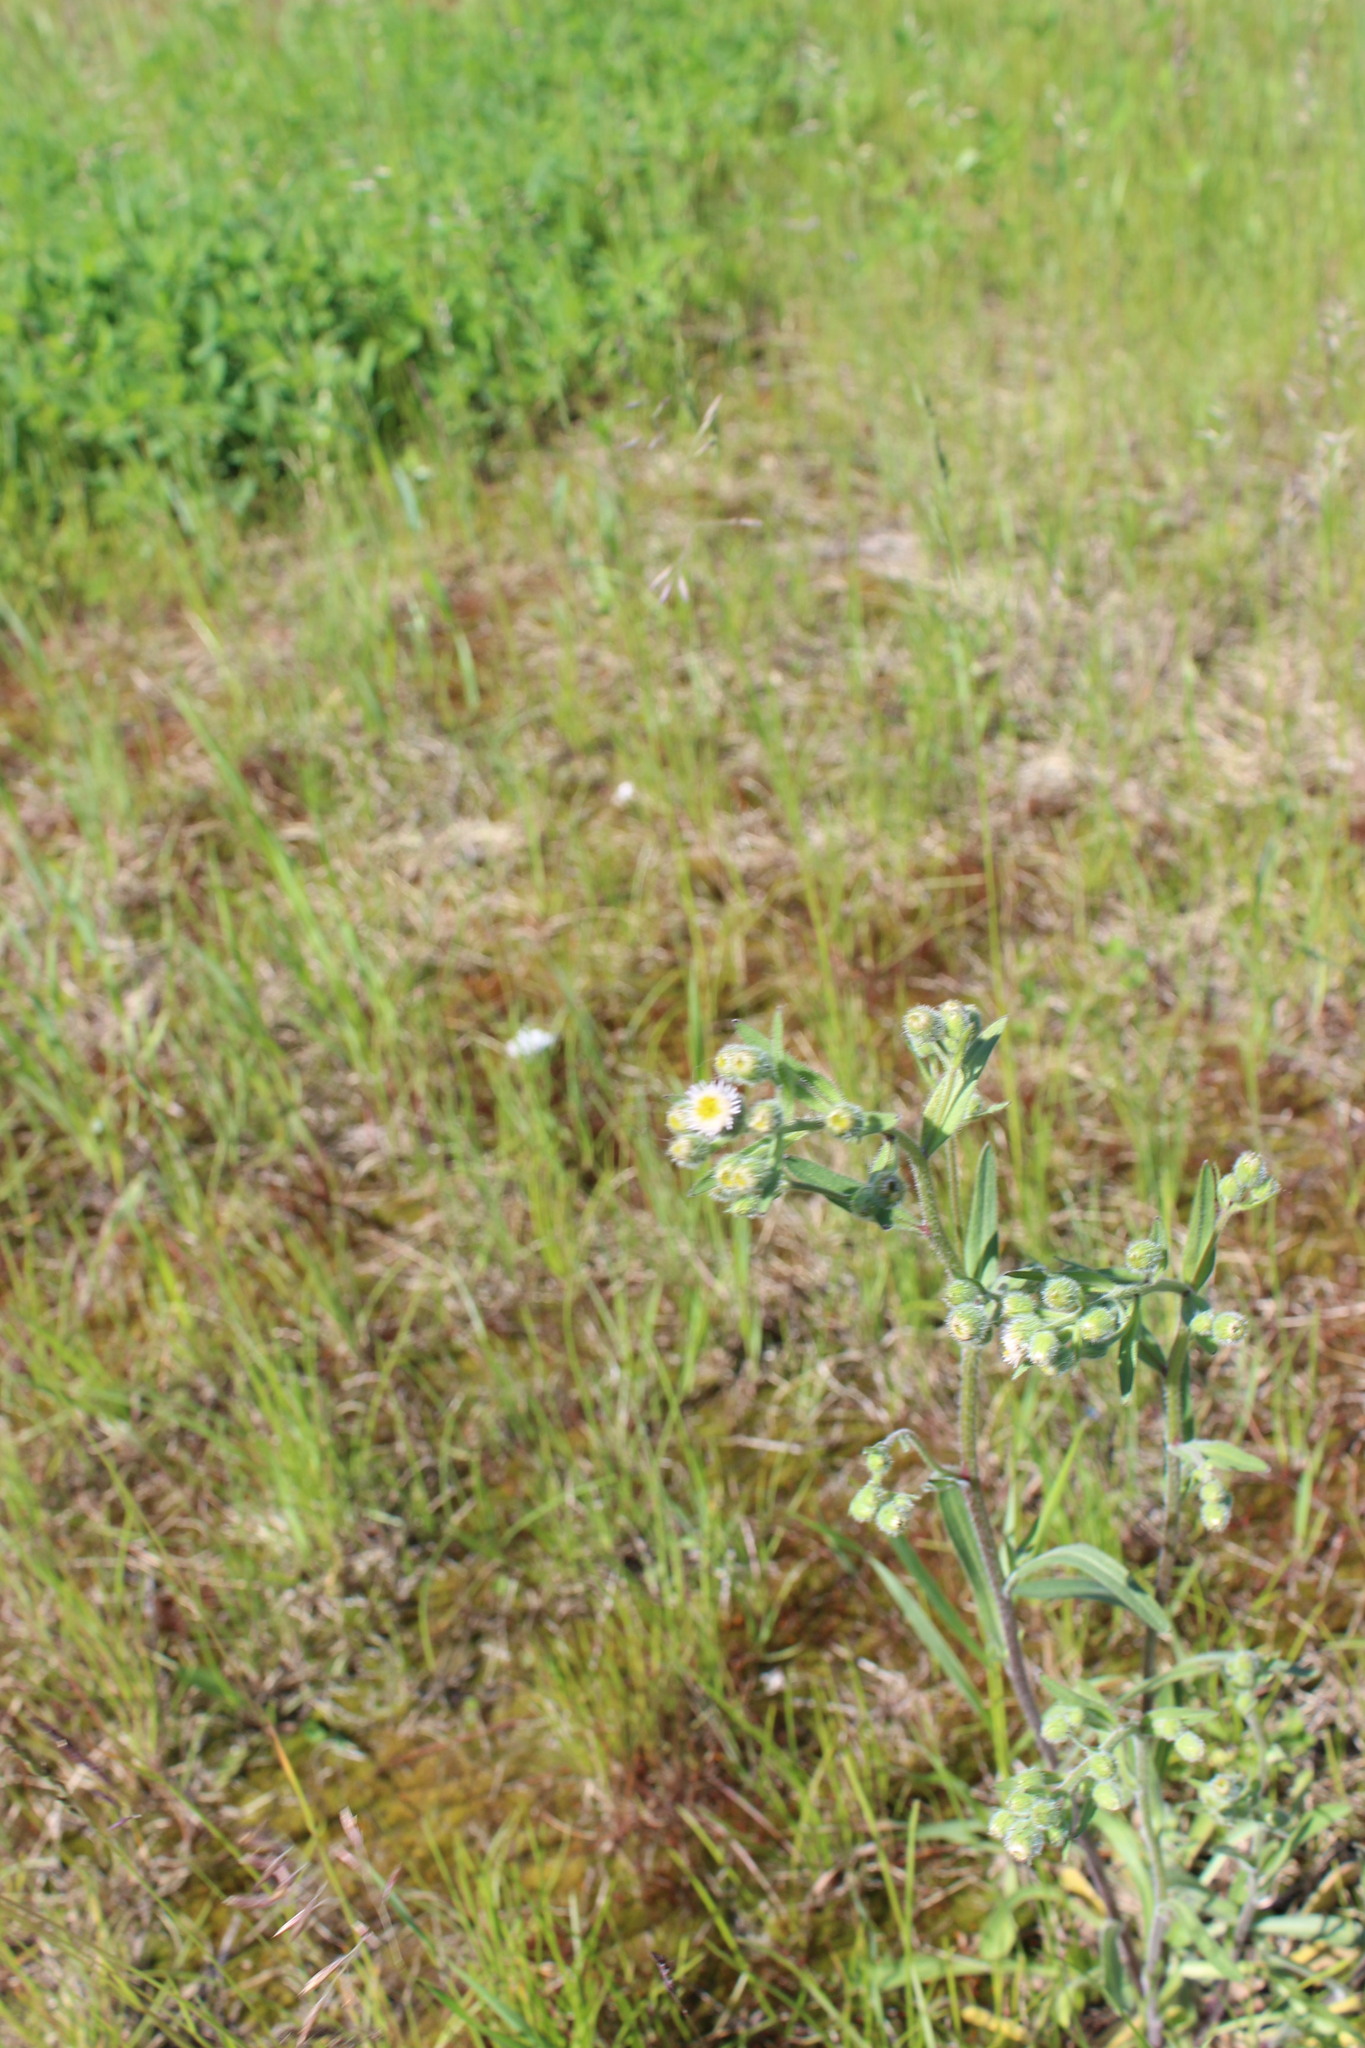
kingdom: Plantae
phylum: Tracheophyta
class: Magnoliopsida
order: Asterales
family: Asteraceae
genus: Erigeron
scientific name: Erigeron acris
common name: Blue fleabane
